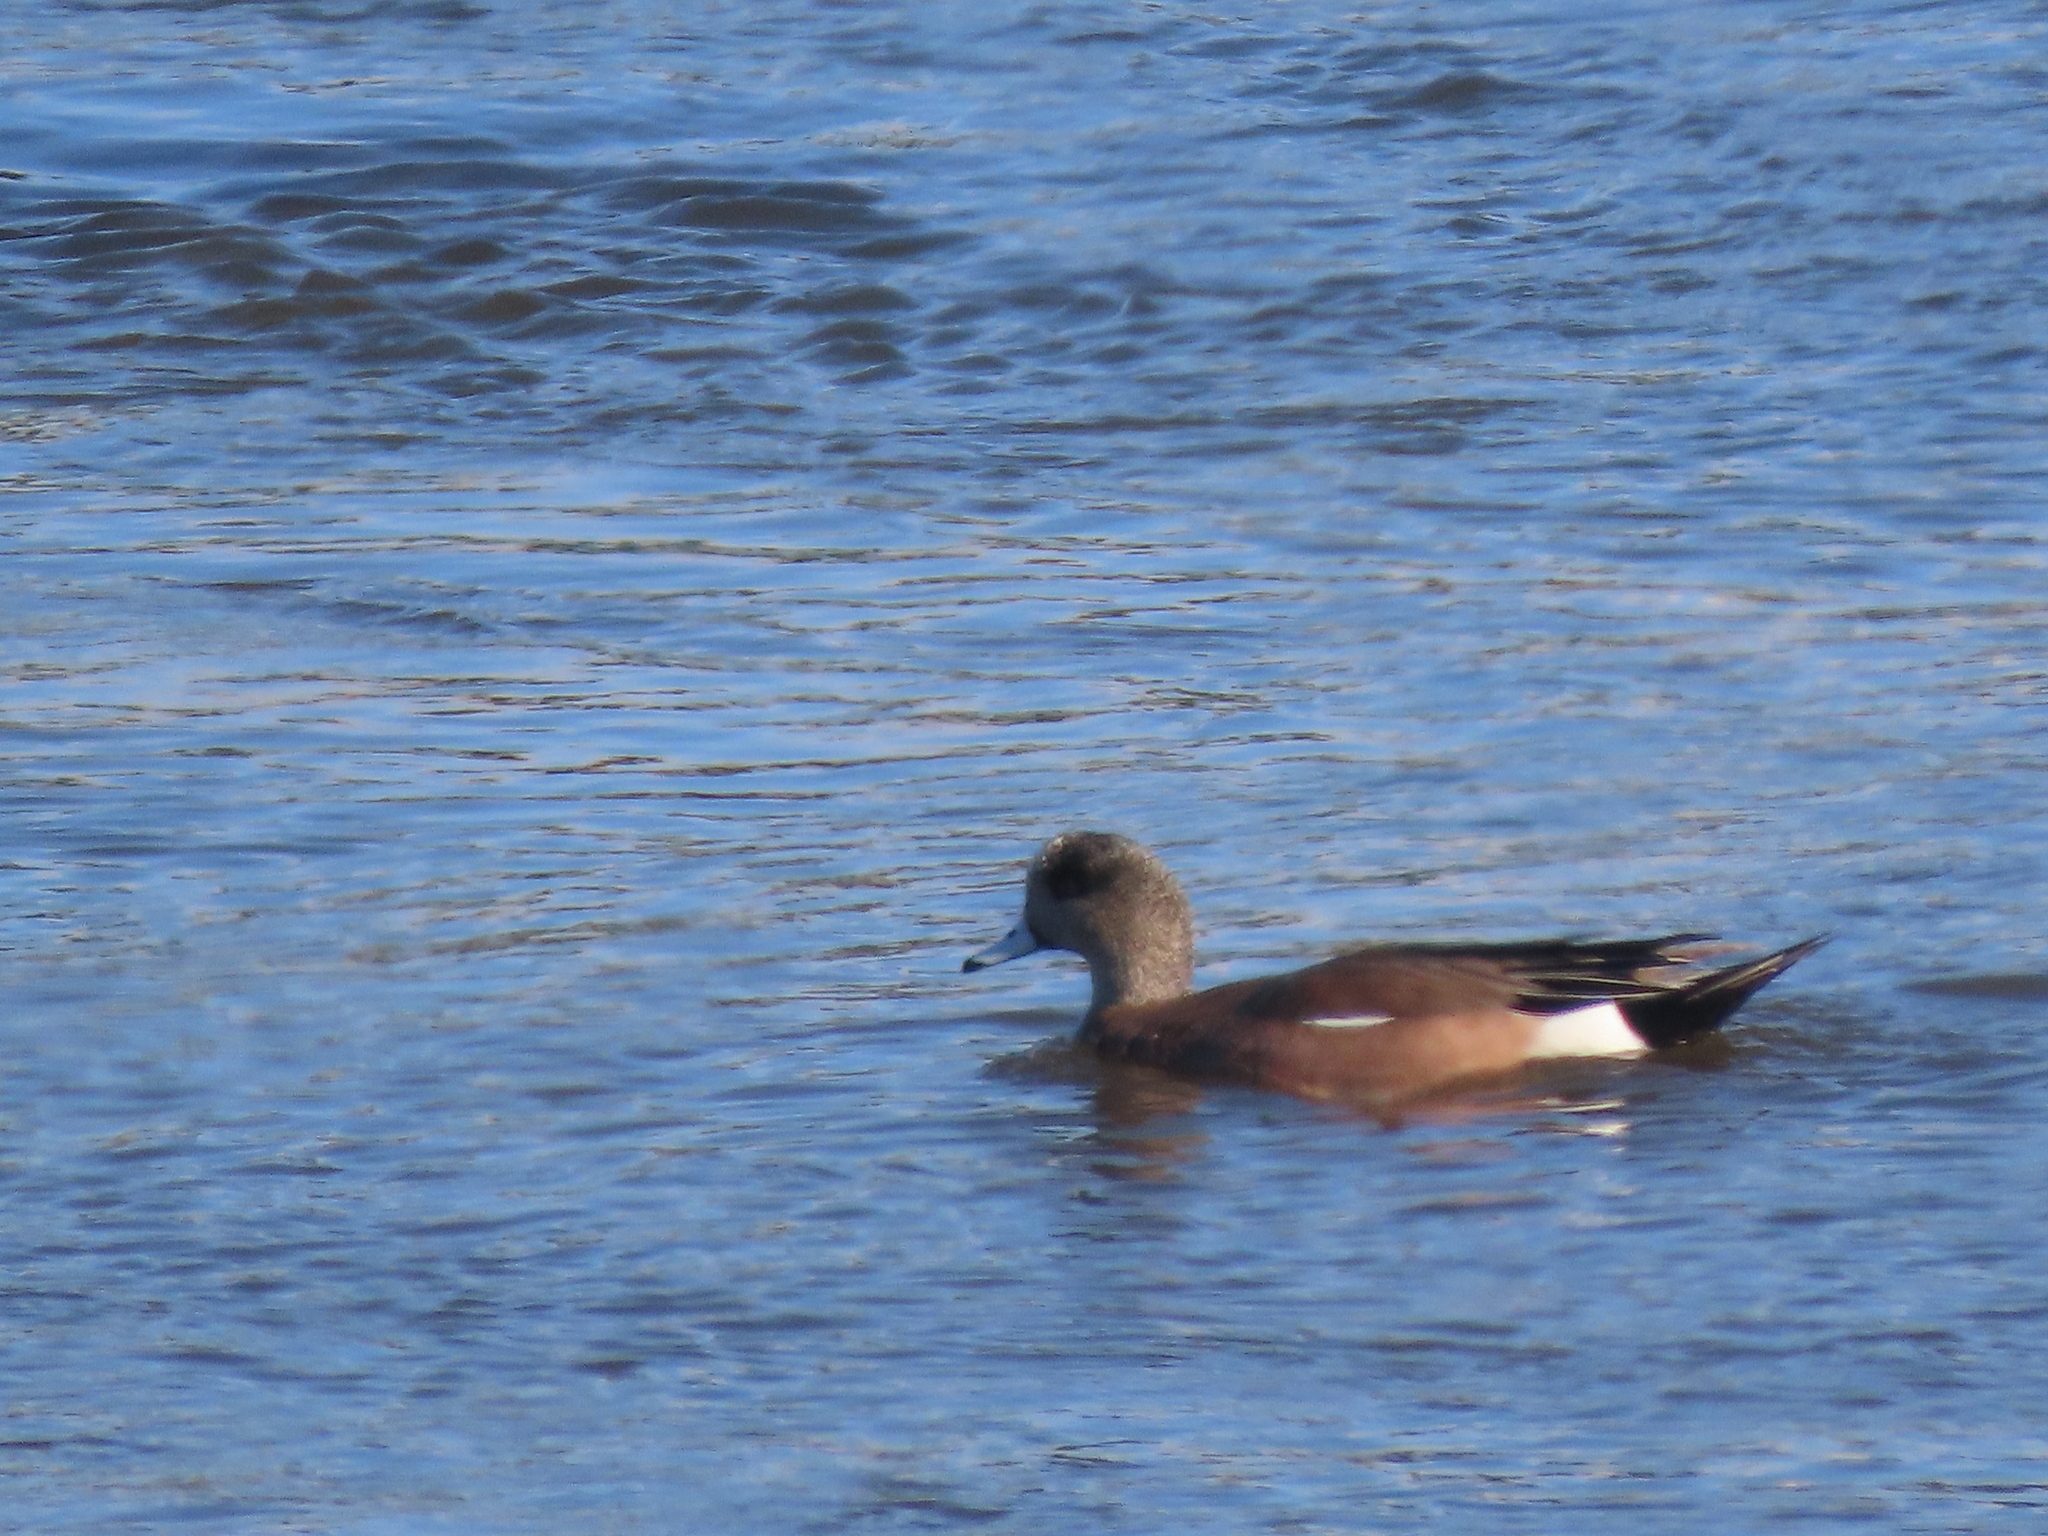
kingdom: Animalia
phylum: Chordata
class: Aves
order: Anseriformes
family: Anatidae
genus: Mareca
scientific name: Mareca americana
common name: American wigeon
